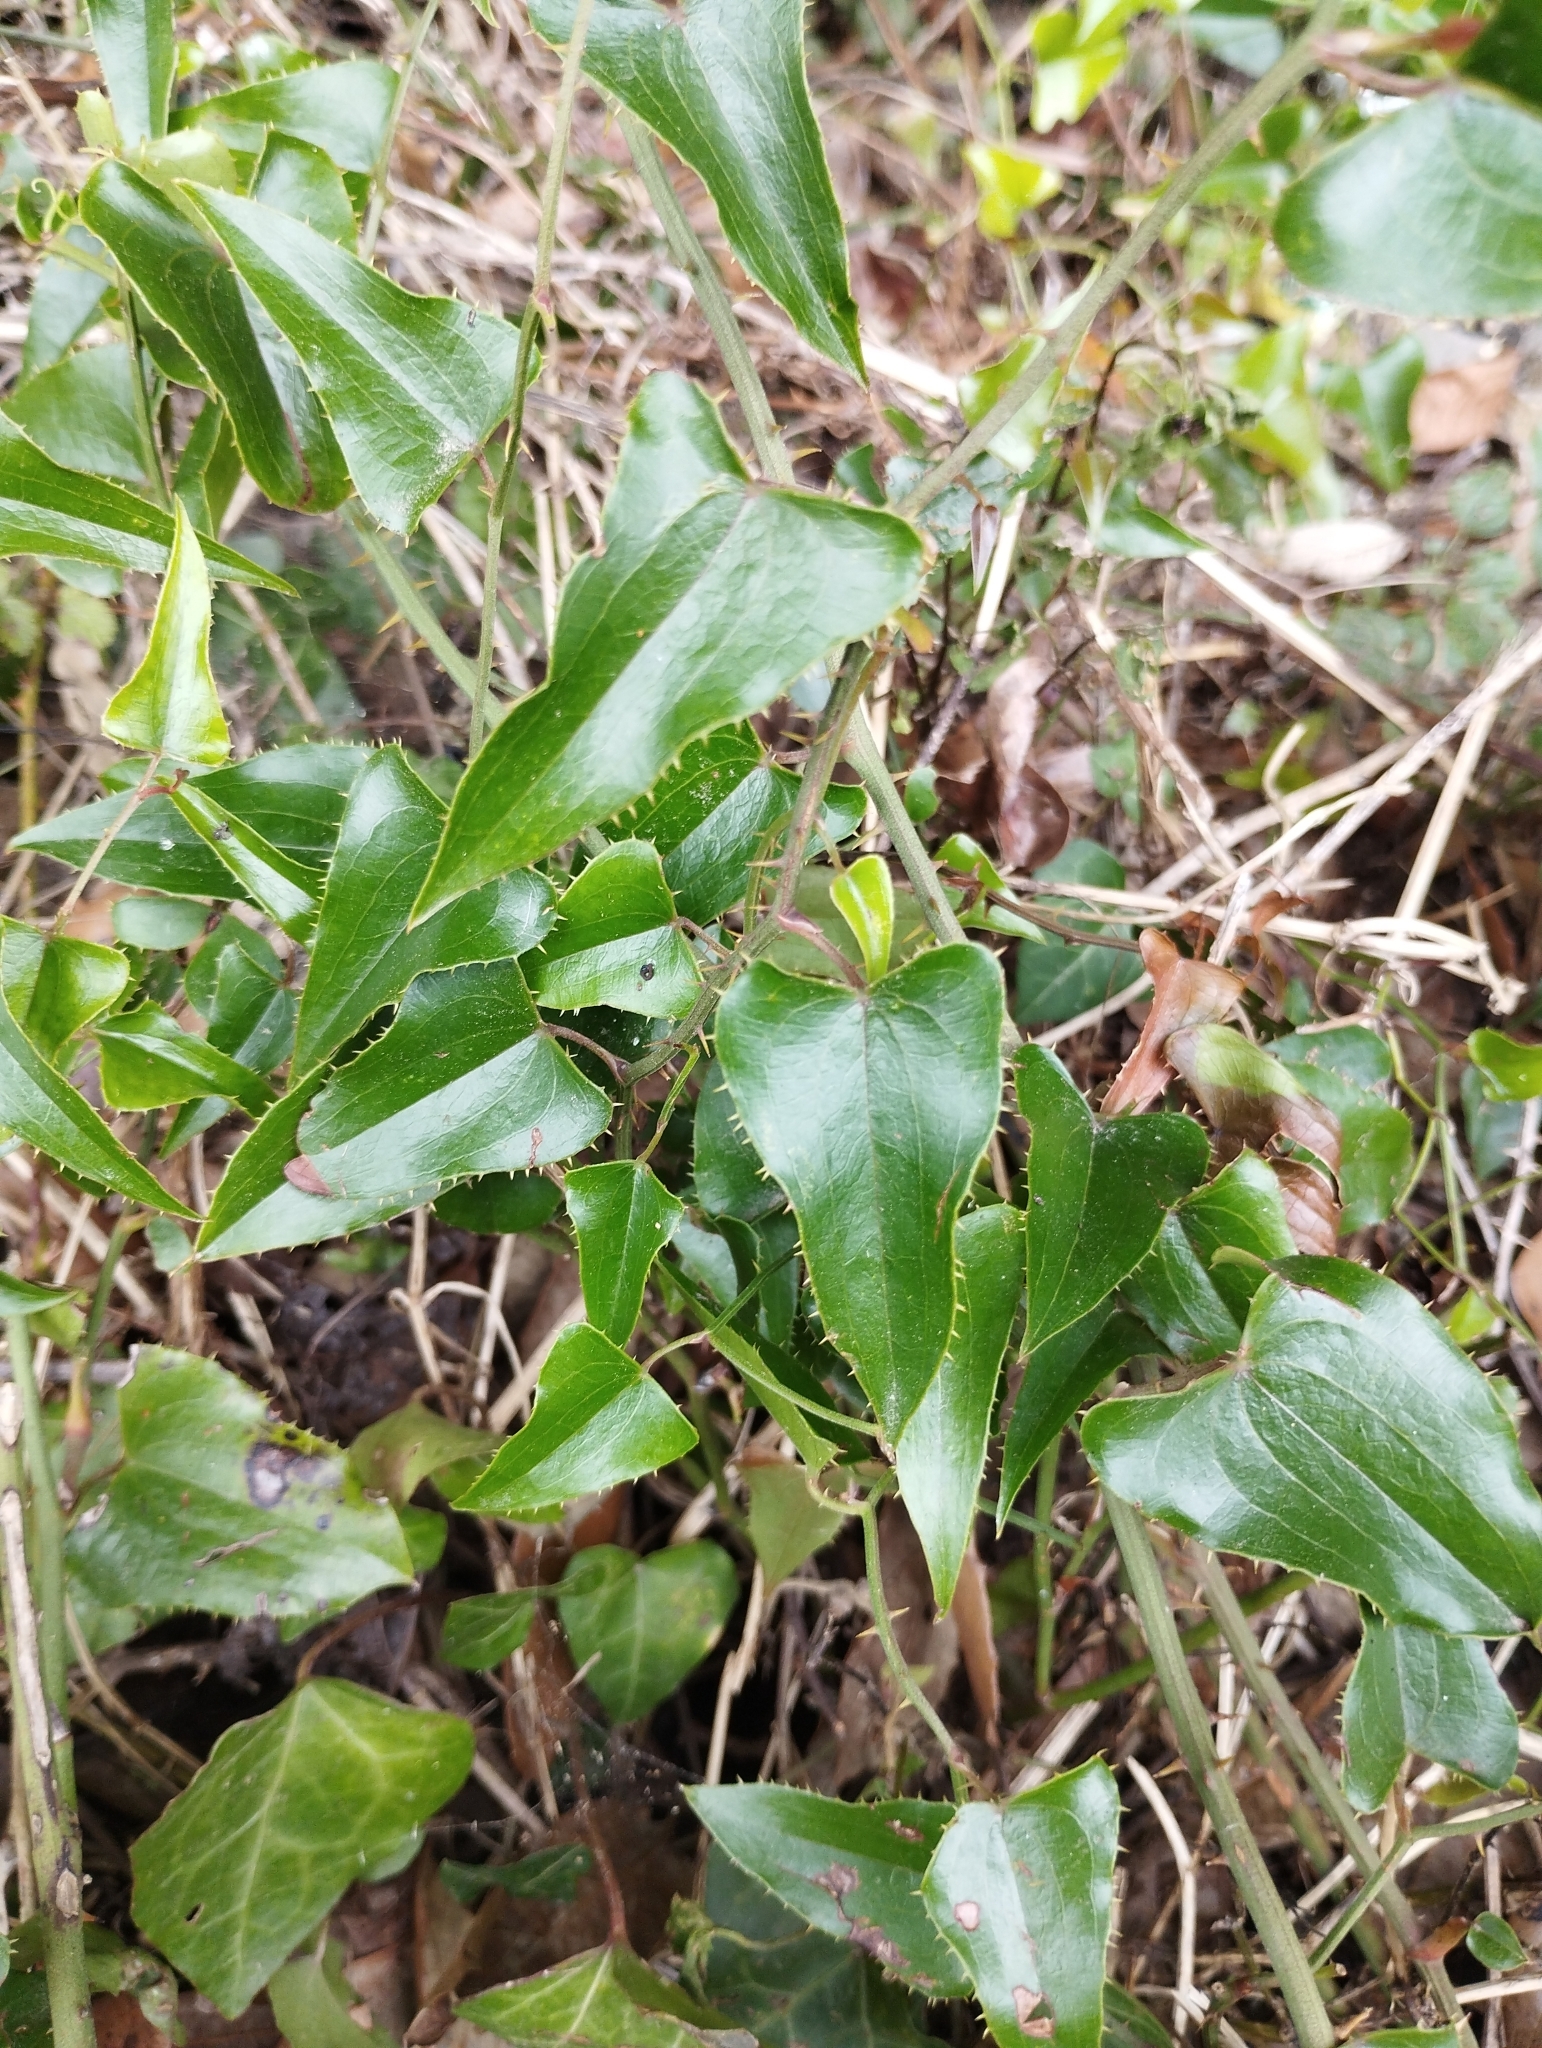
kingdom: Plantae
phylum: Tracheophyta
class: Liliopsida
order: Liliales
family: Smilacaceae
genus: Smilax
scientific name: Smilax aspera
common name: Common smilax
